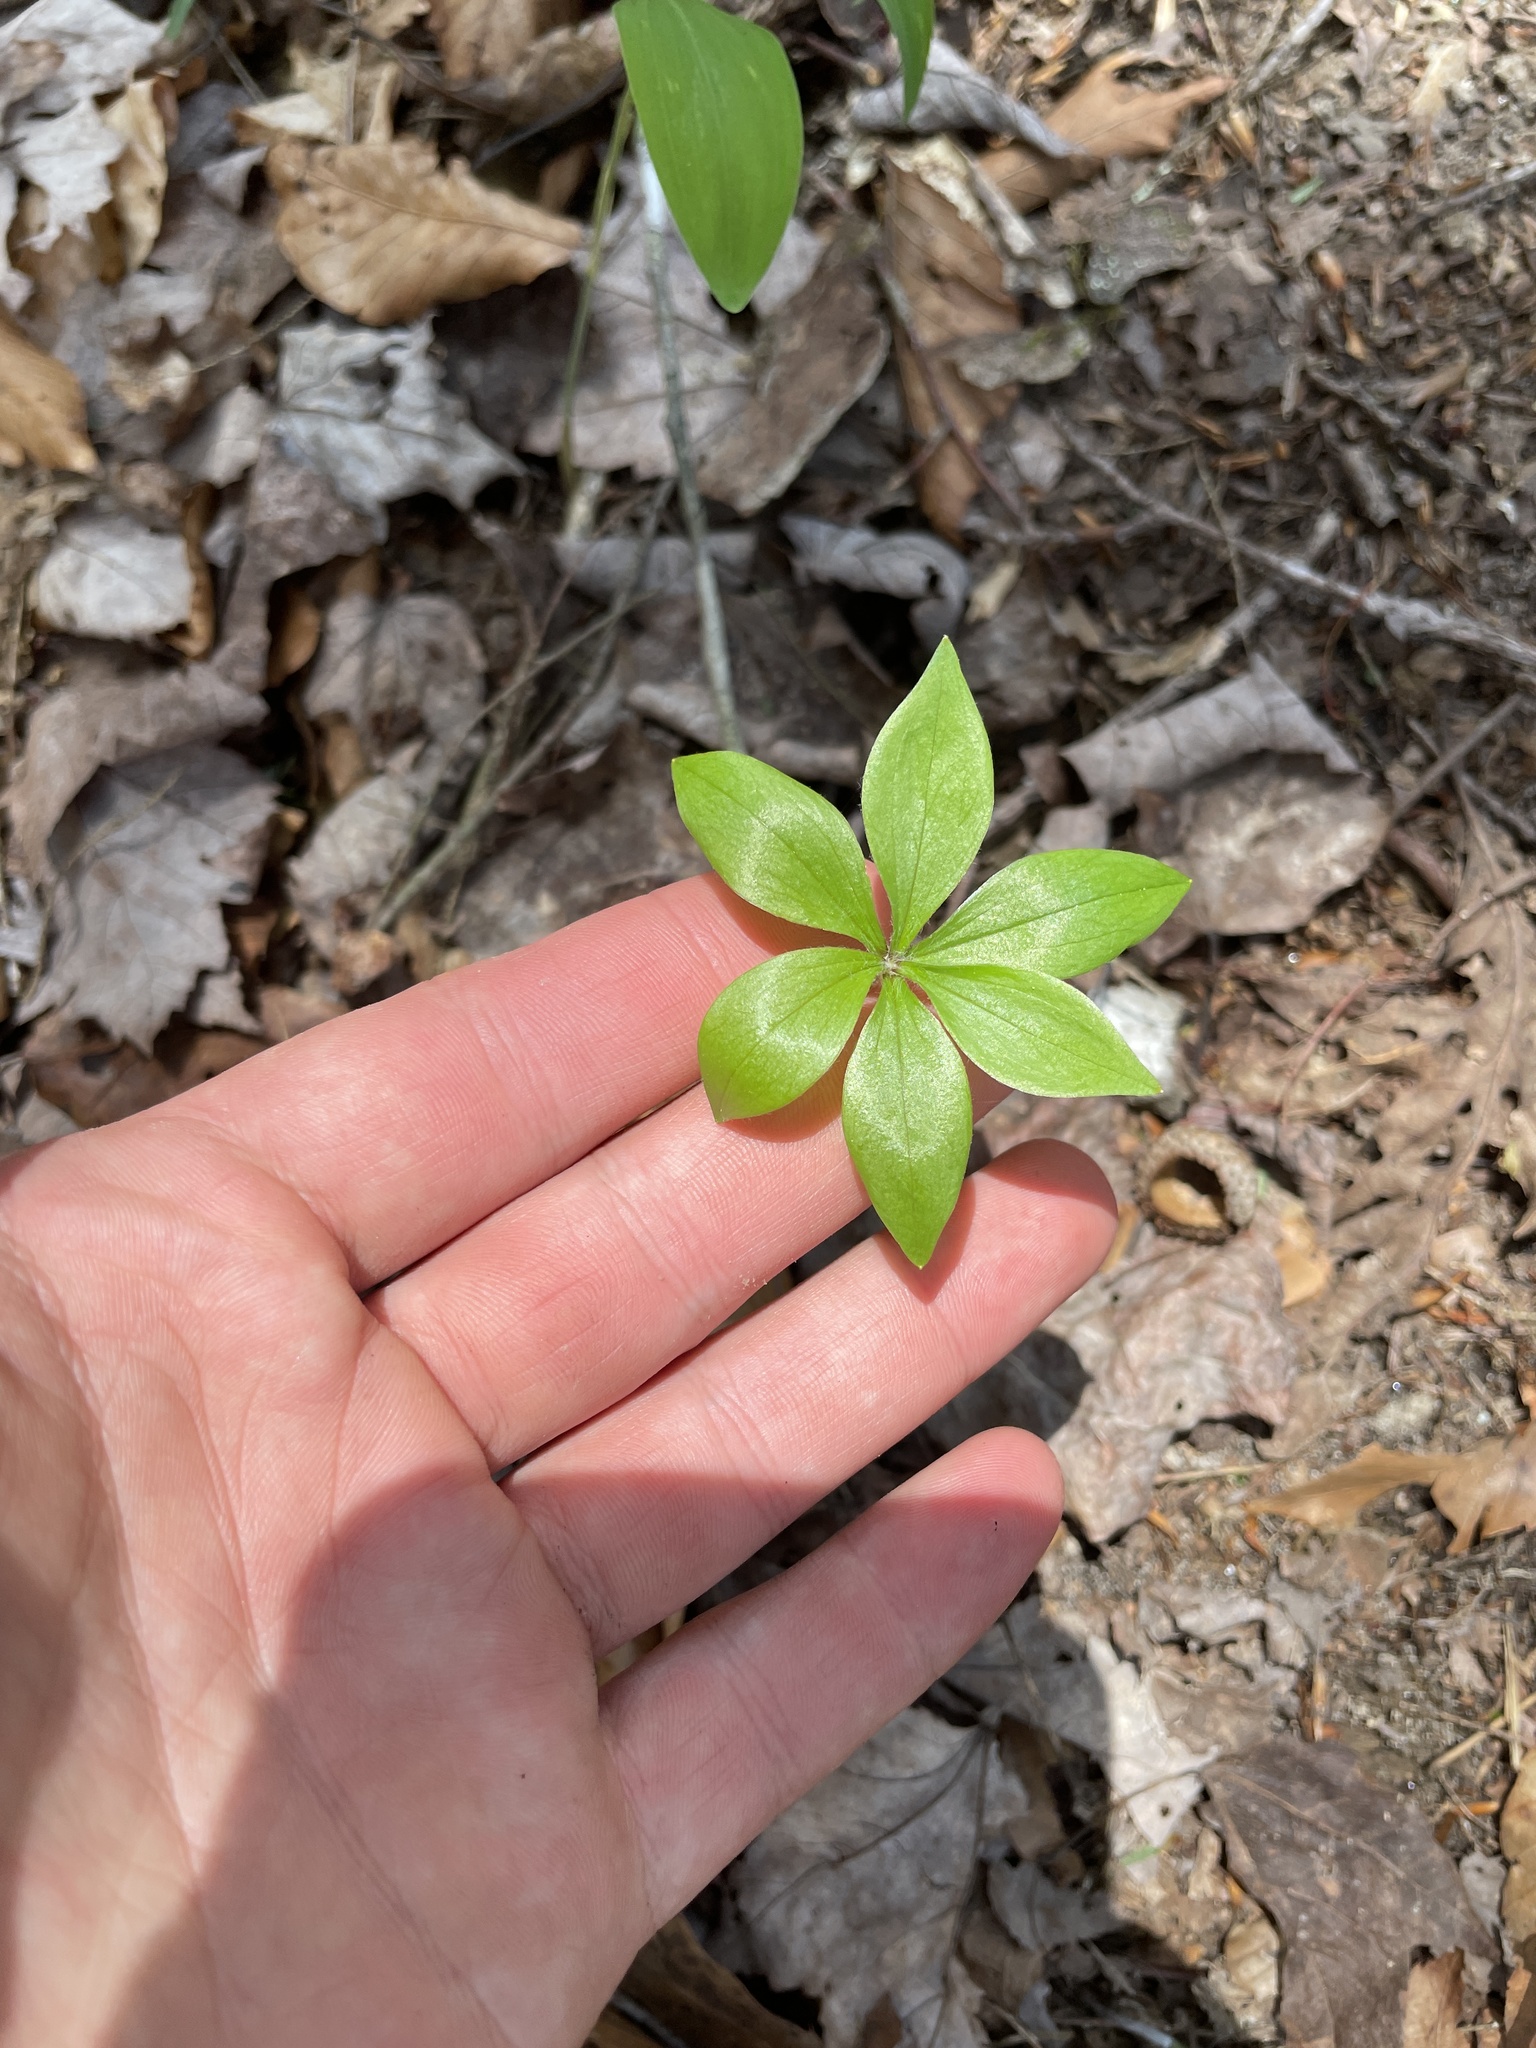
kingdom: Plantae
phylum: Tracheophyta
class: Liliopsida
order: Liliales
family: Liliaceae
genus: Medeola
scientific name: Medeola virginiana
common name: Indian cucumber-root
